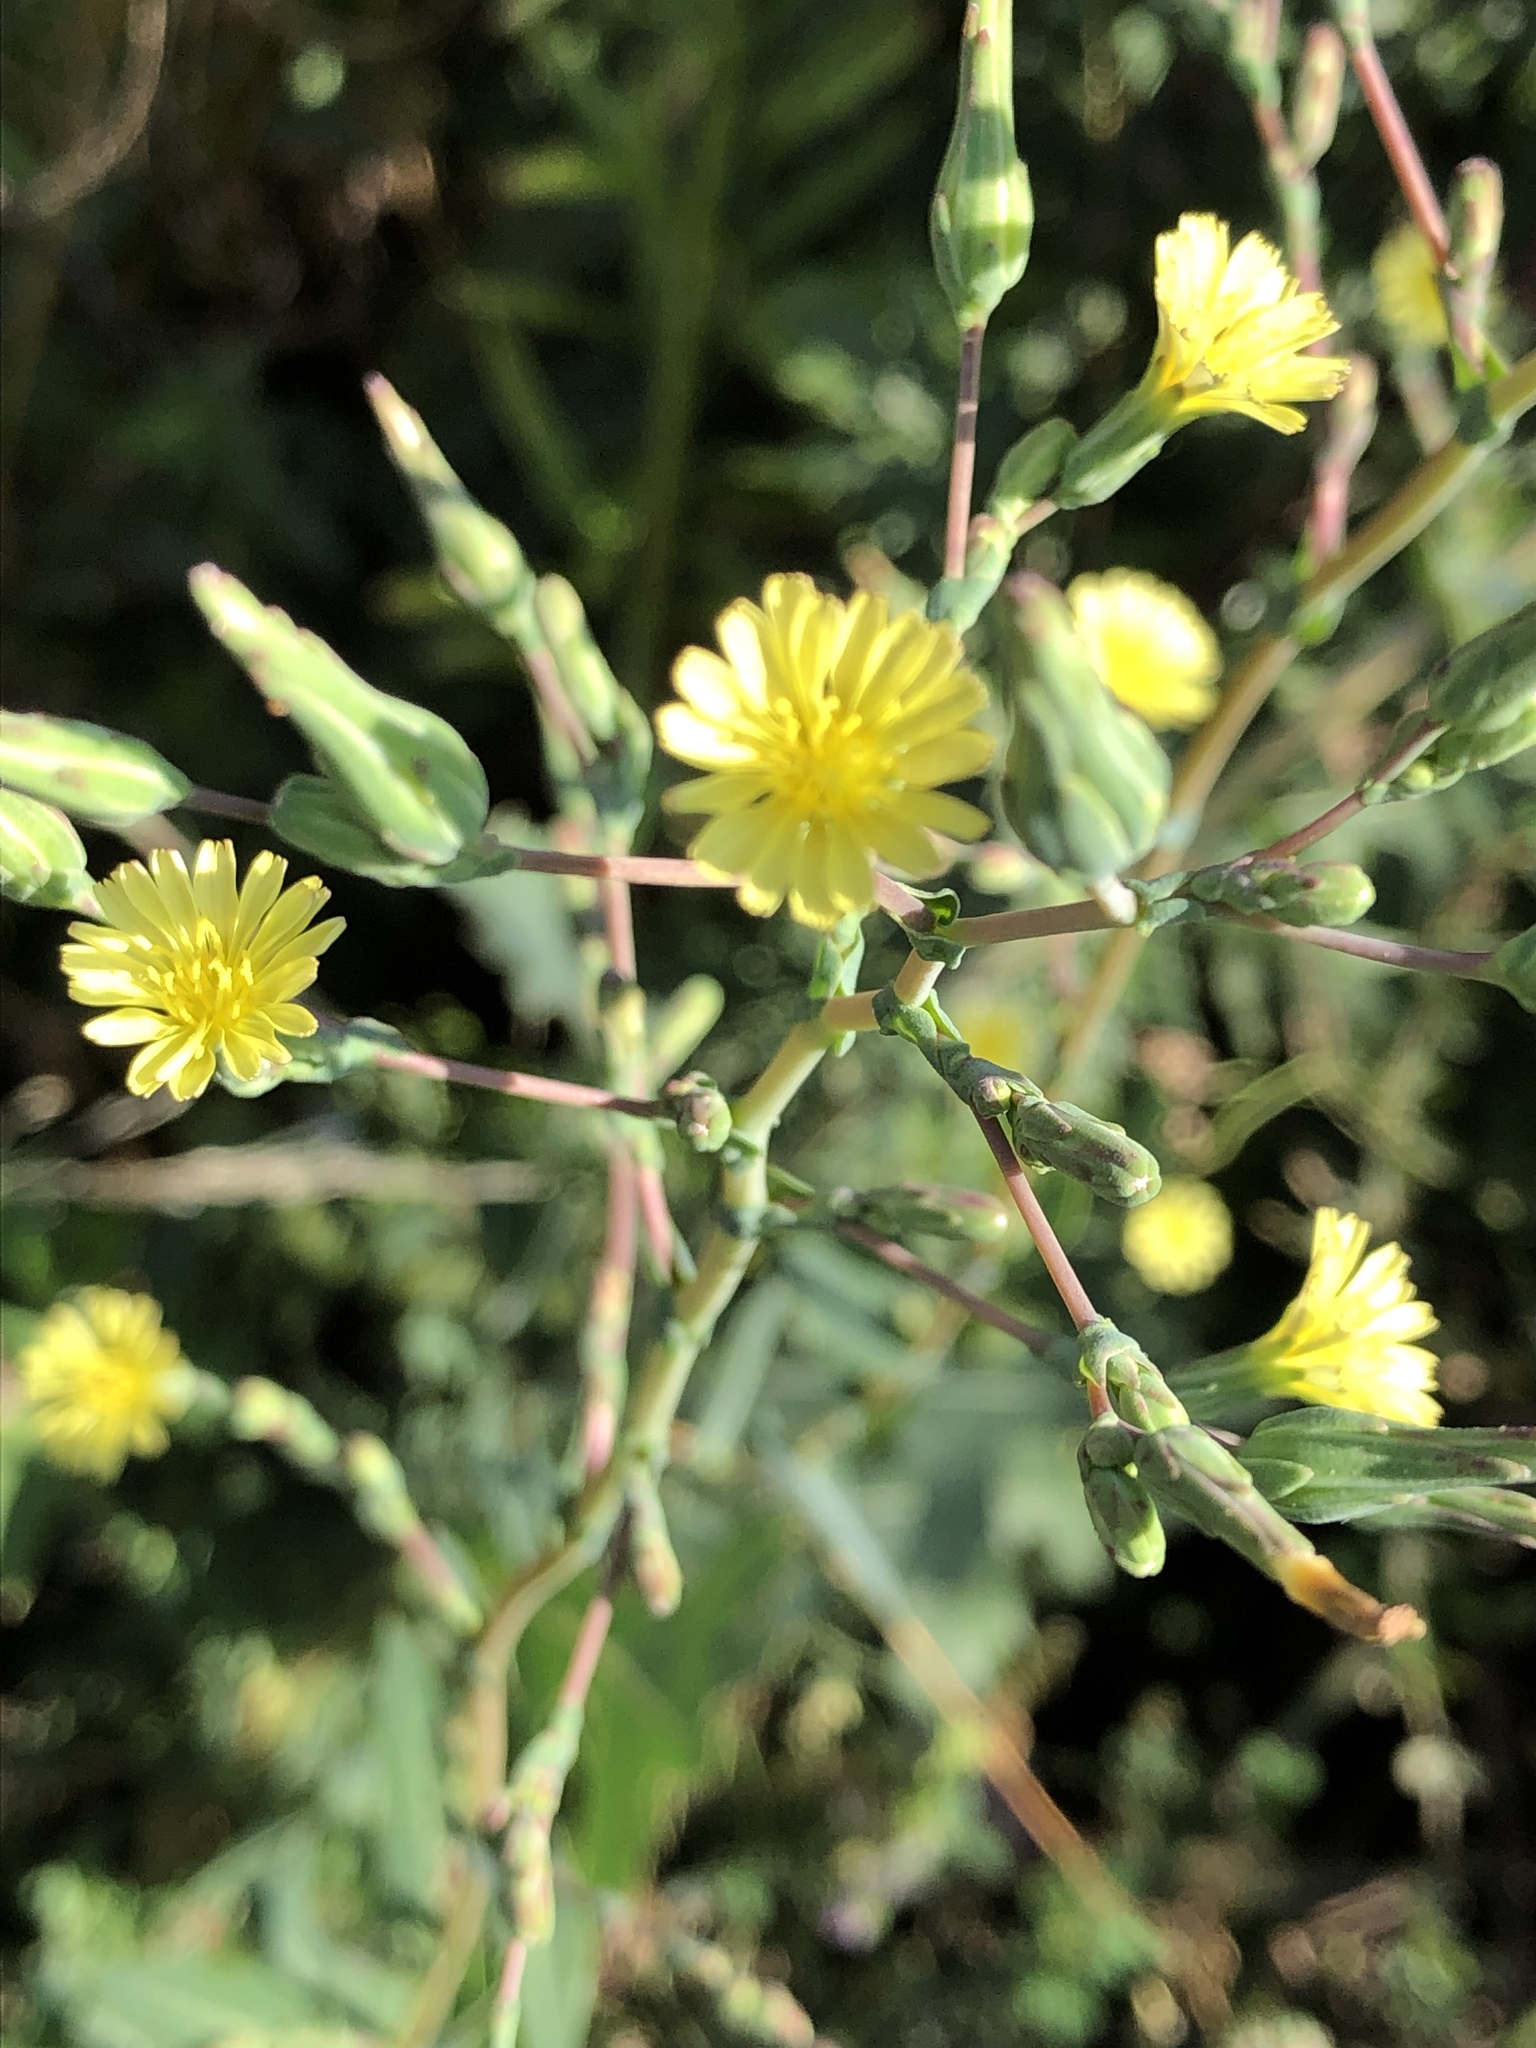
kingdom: Plantae
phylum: Tracheophyta
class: Magnoliopsida
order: Asterales
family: Asteraceae
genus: Lactuca
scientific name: Lactuca serriola
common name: Prickly lettuce
